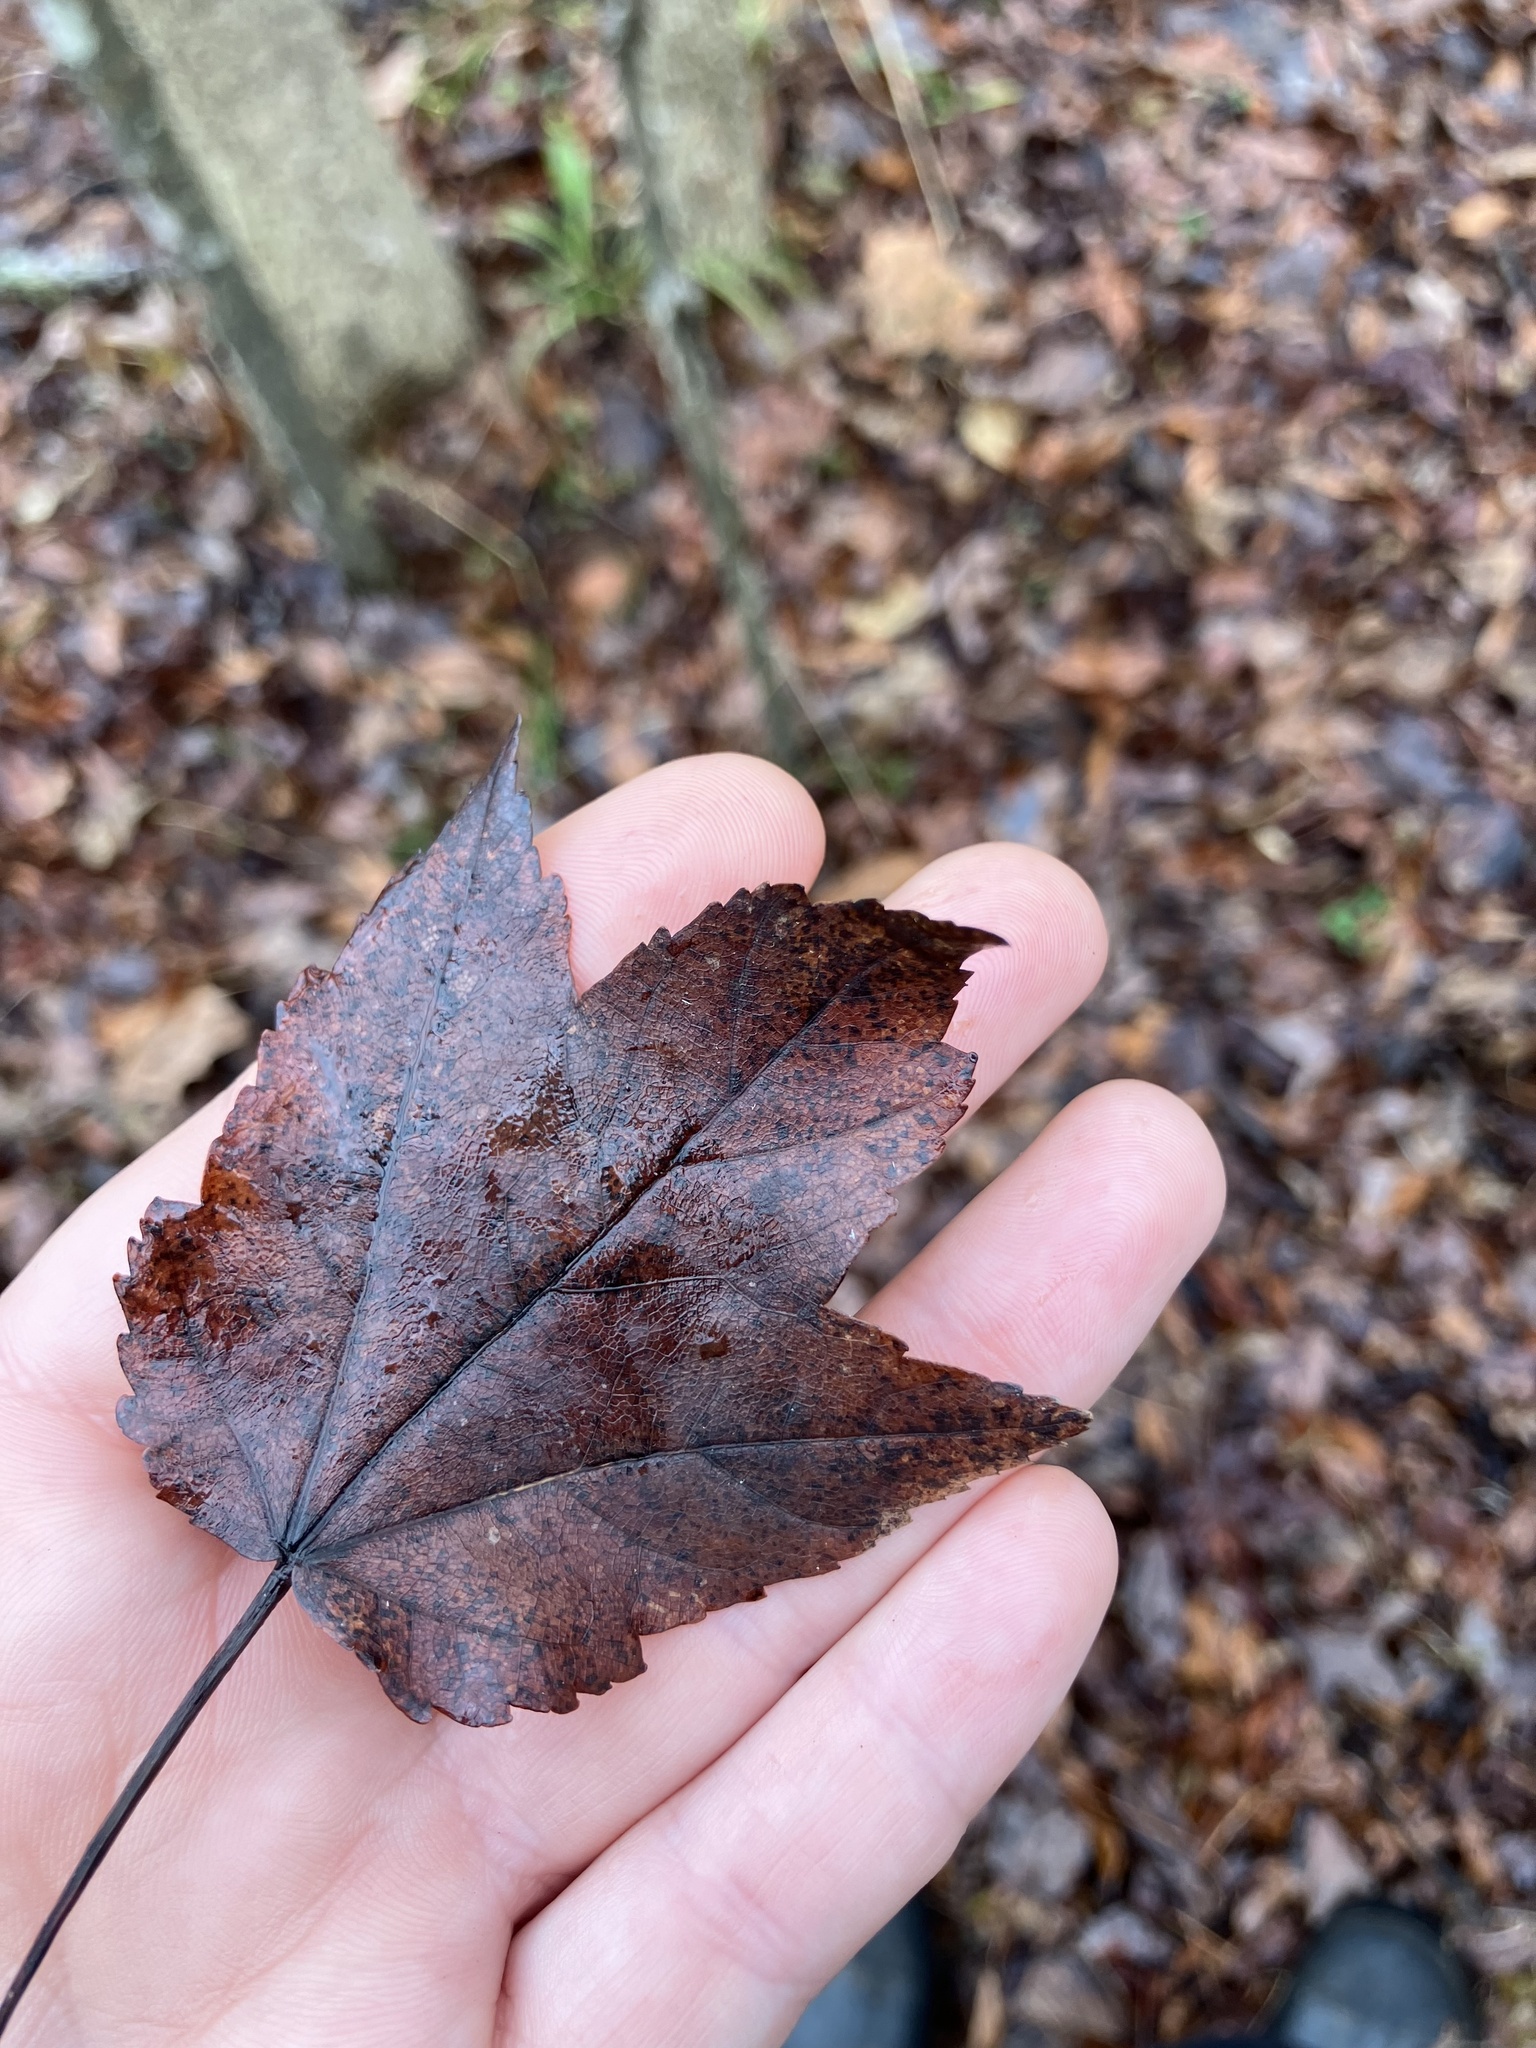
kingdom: Plantae
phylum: Tracheophyta
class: Magnoliopsida
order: Sapindales
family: Sapindaceae
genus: Acer
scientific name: Acer rubrum
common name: Red maple
